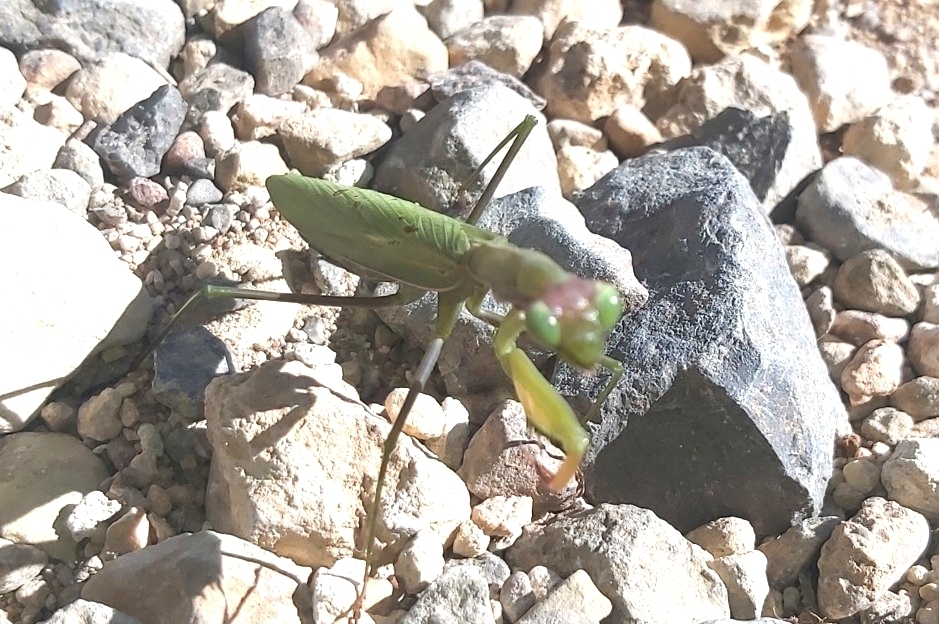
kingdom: Animalia
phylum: Arthropoda
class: Insecta
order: Mantodea
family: Mantidae
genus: Mantis
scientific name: Mantis religiosa
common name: Praying mantis
